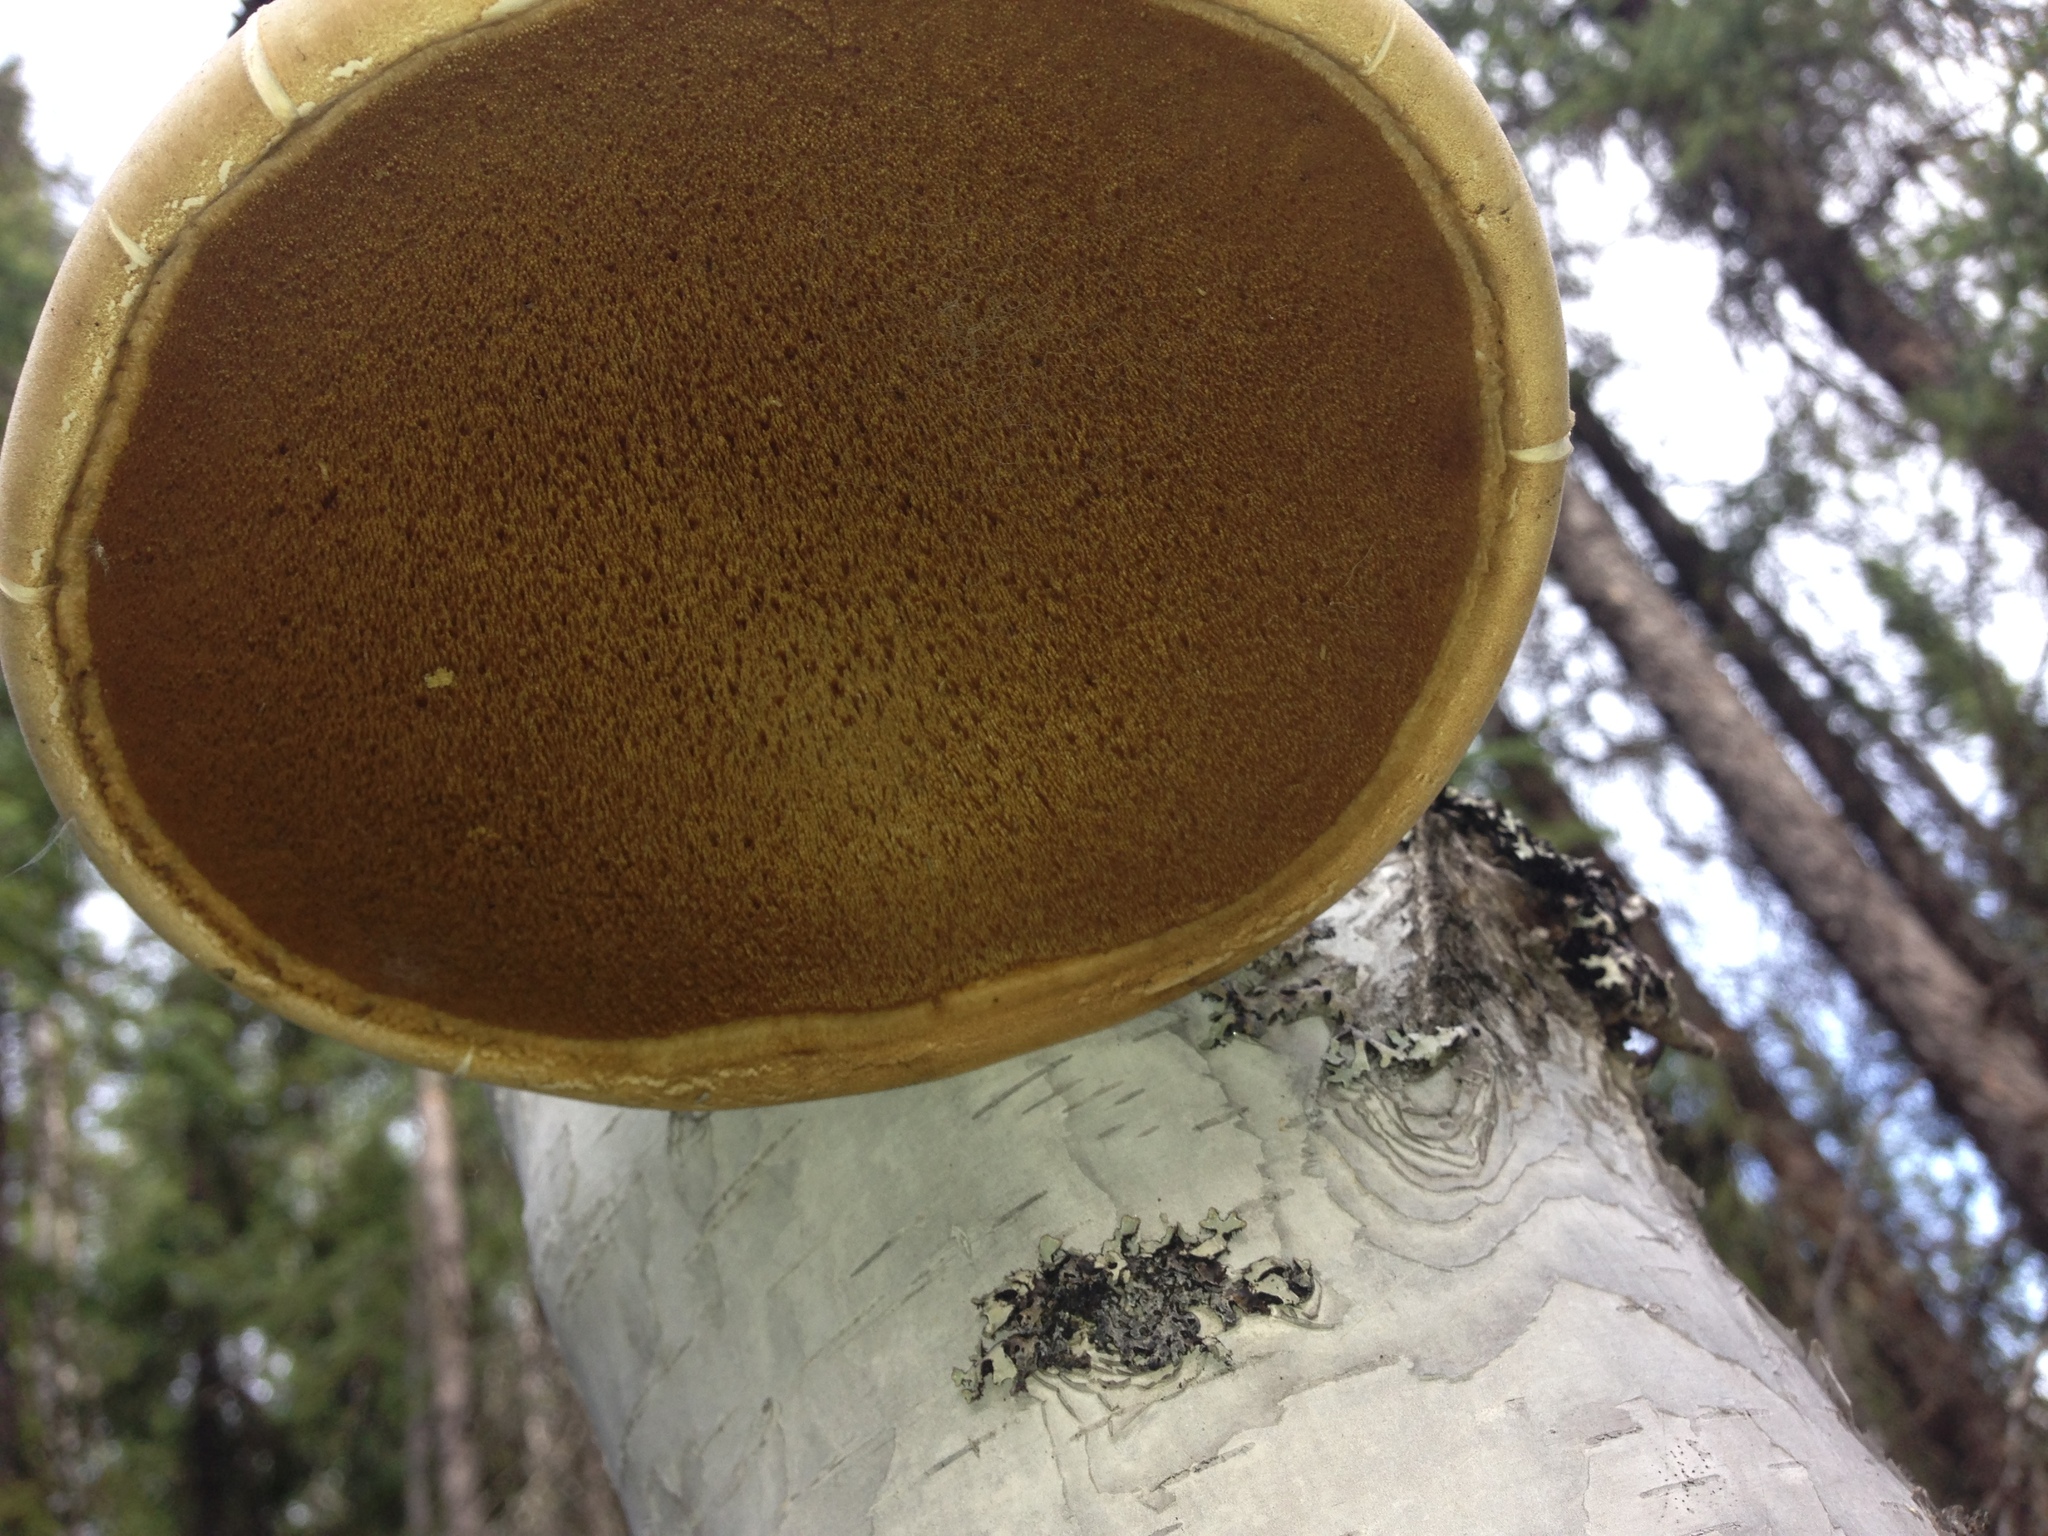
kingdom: Fungi
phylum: Basidiomycota
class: Agaricomycetes
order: Polyporales
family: Fomitopsidaceae
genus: Fomitopsis
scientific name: Fomitopsis betulina
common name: Birch polypore
